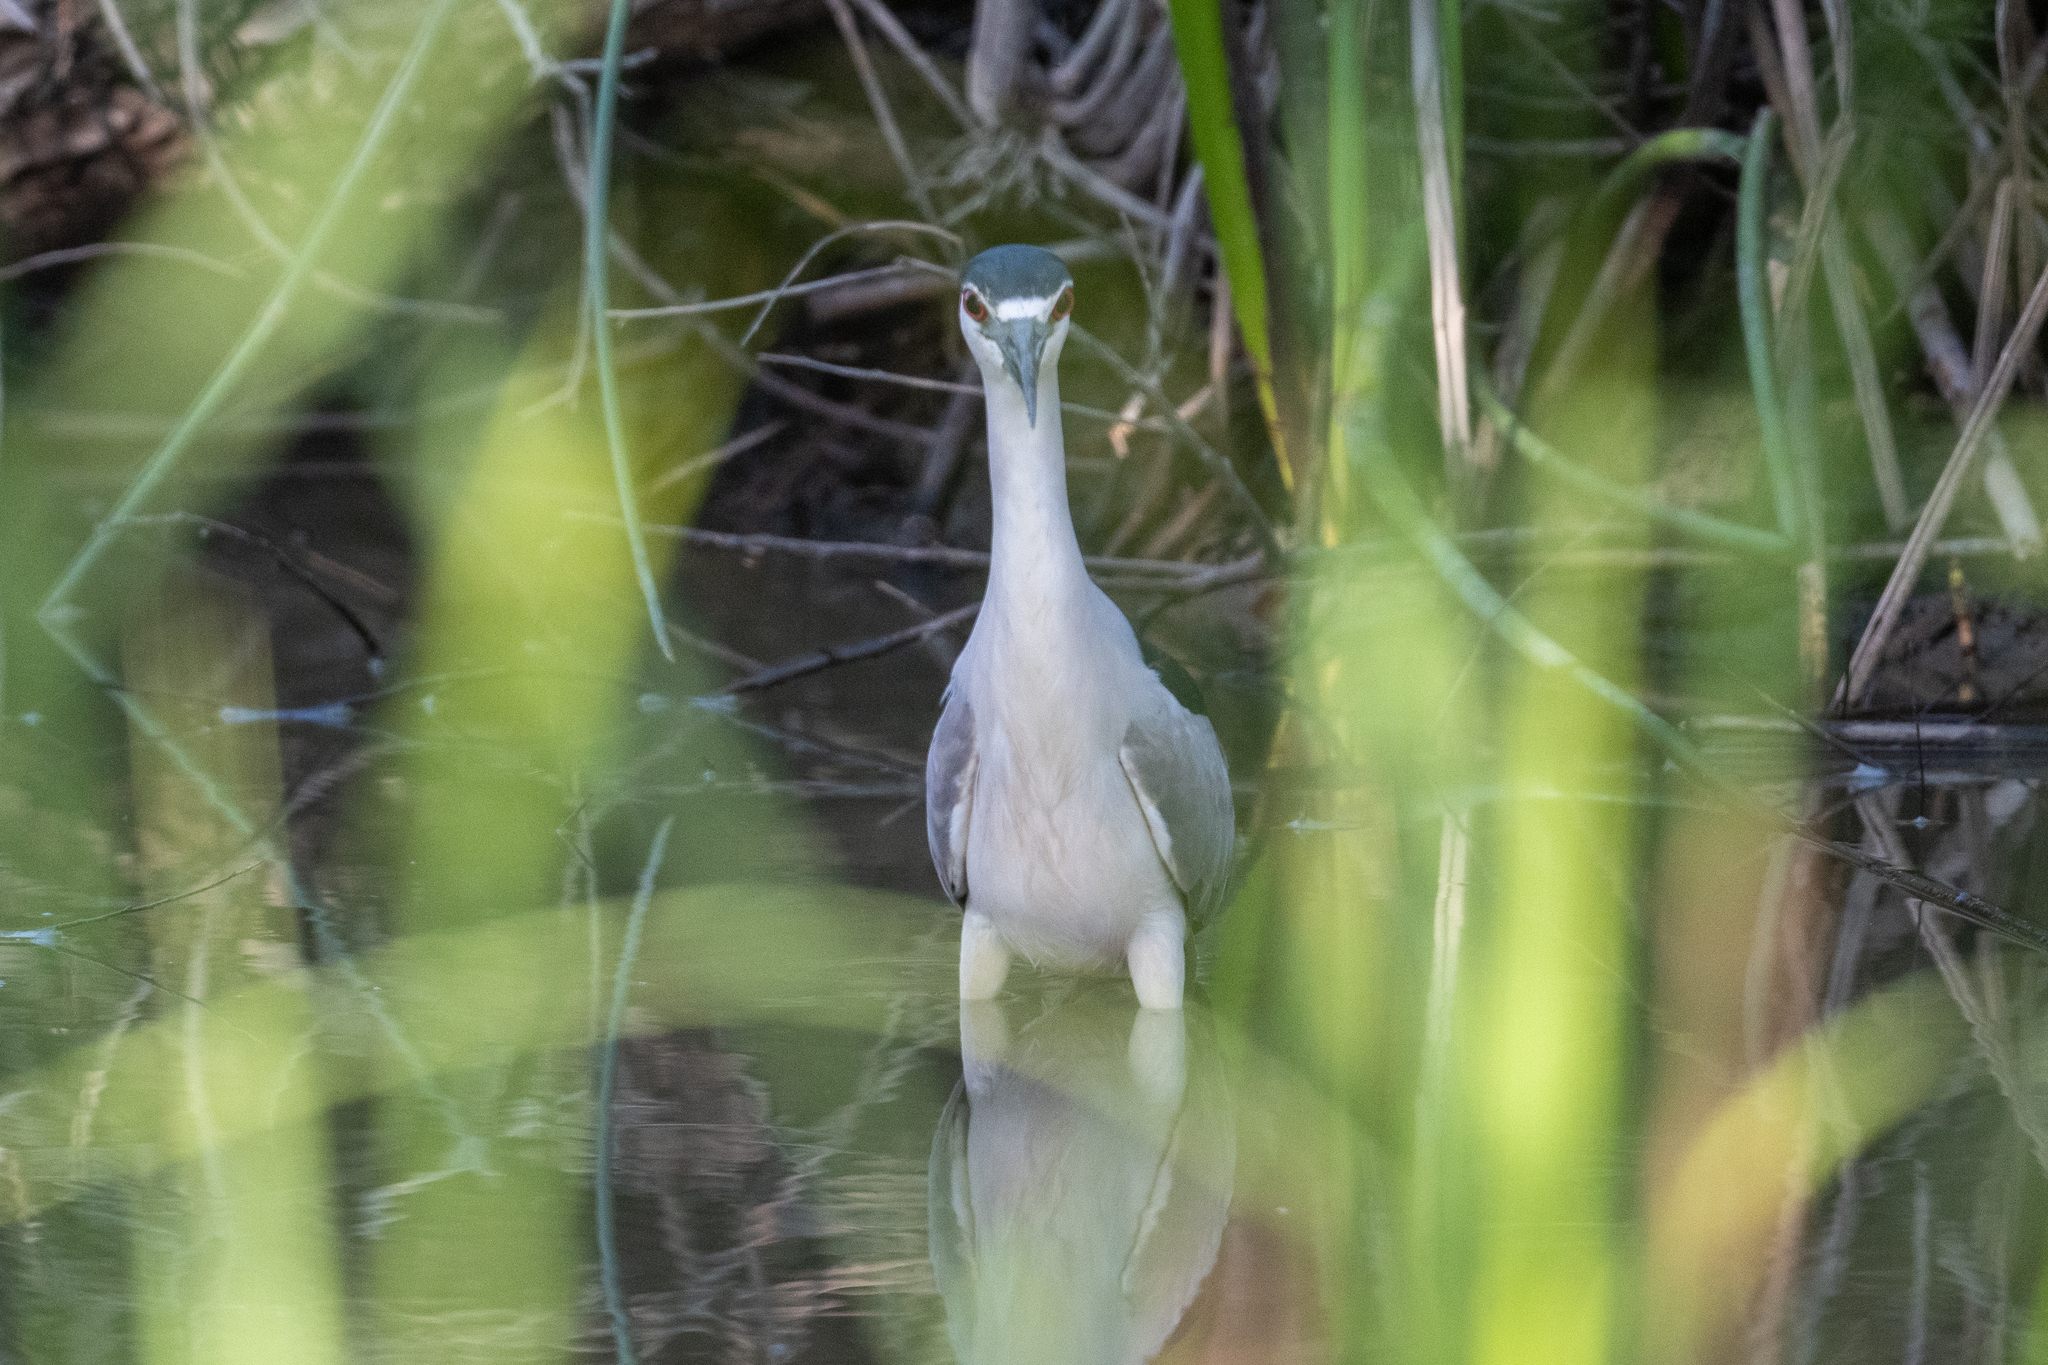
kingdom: Animalia
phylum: Chordata
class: Aves
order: Pelecaniformes
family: Ardeidae
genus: Nycticorax
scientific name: Nycticorax nycticorax
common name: Black-crowned night heron
